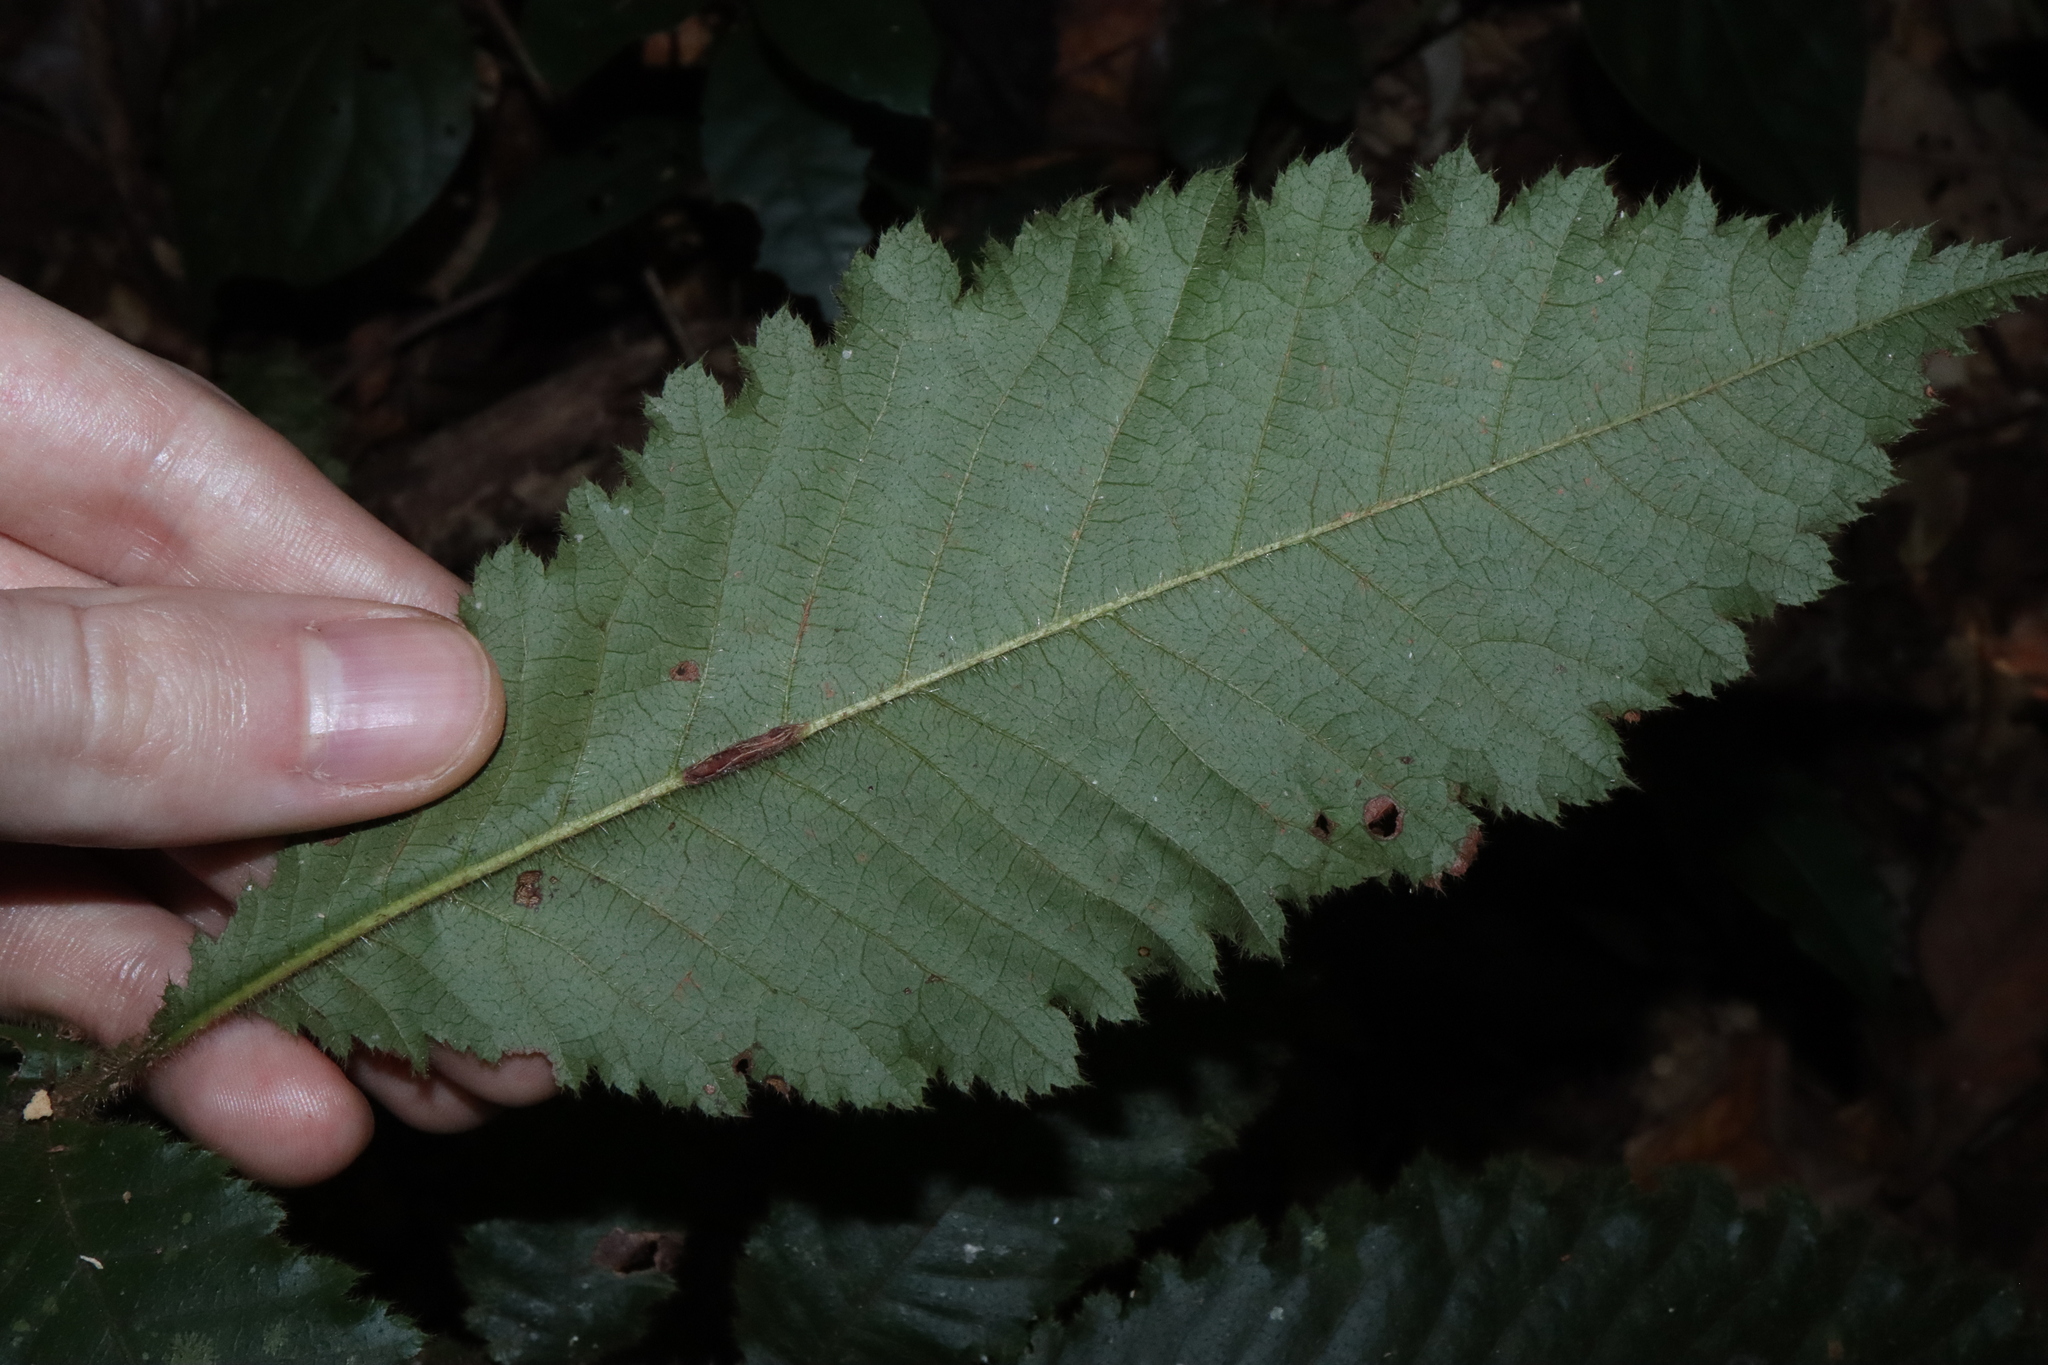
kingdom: Plantae
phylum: Tracheophyta
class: Magnoliopsida
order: Oxalidales
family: Cunoniaceae
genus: Davidsonia
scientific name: Davidsonia pruriens
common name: Do-rog
